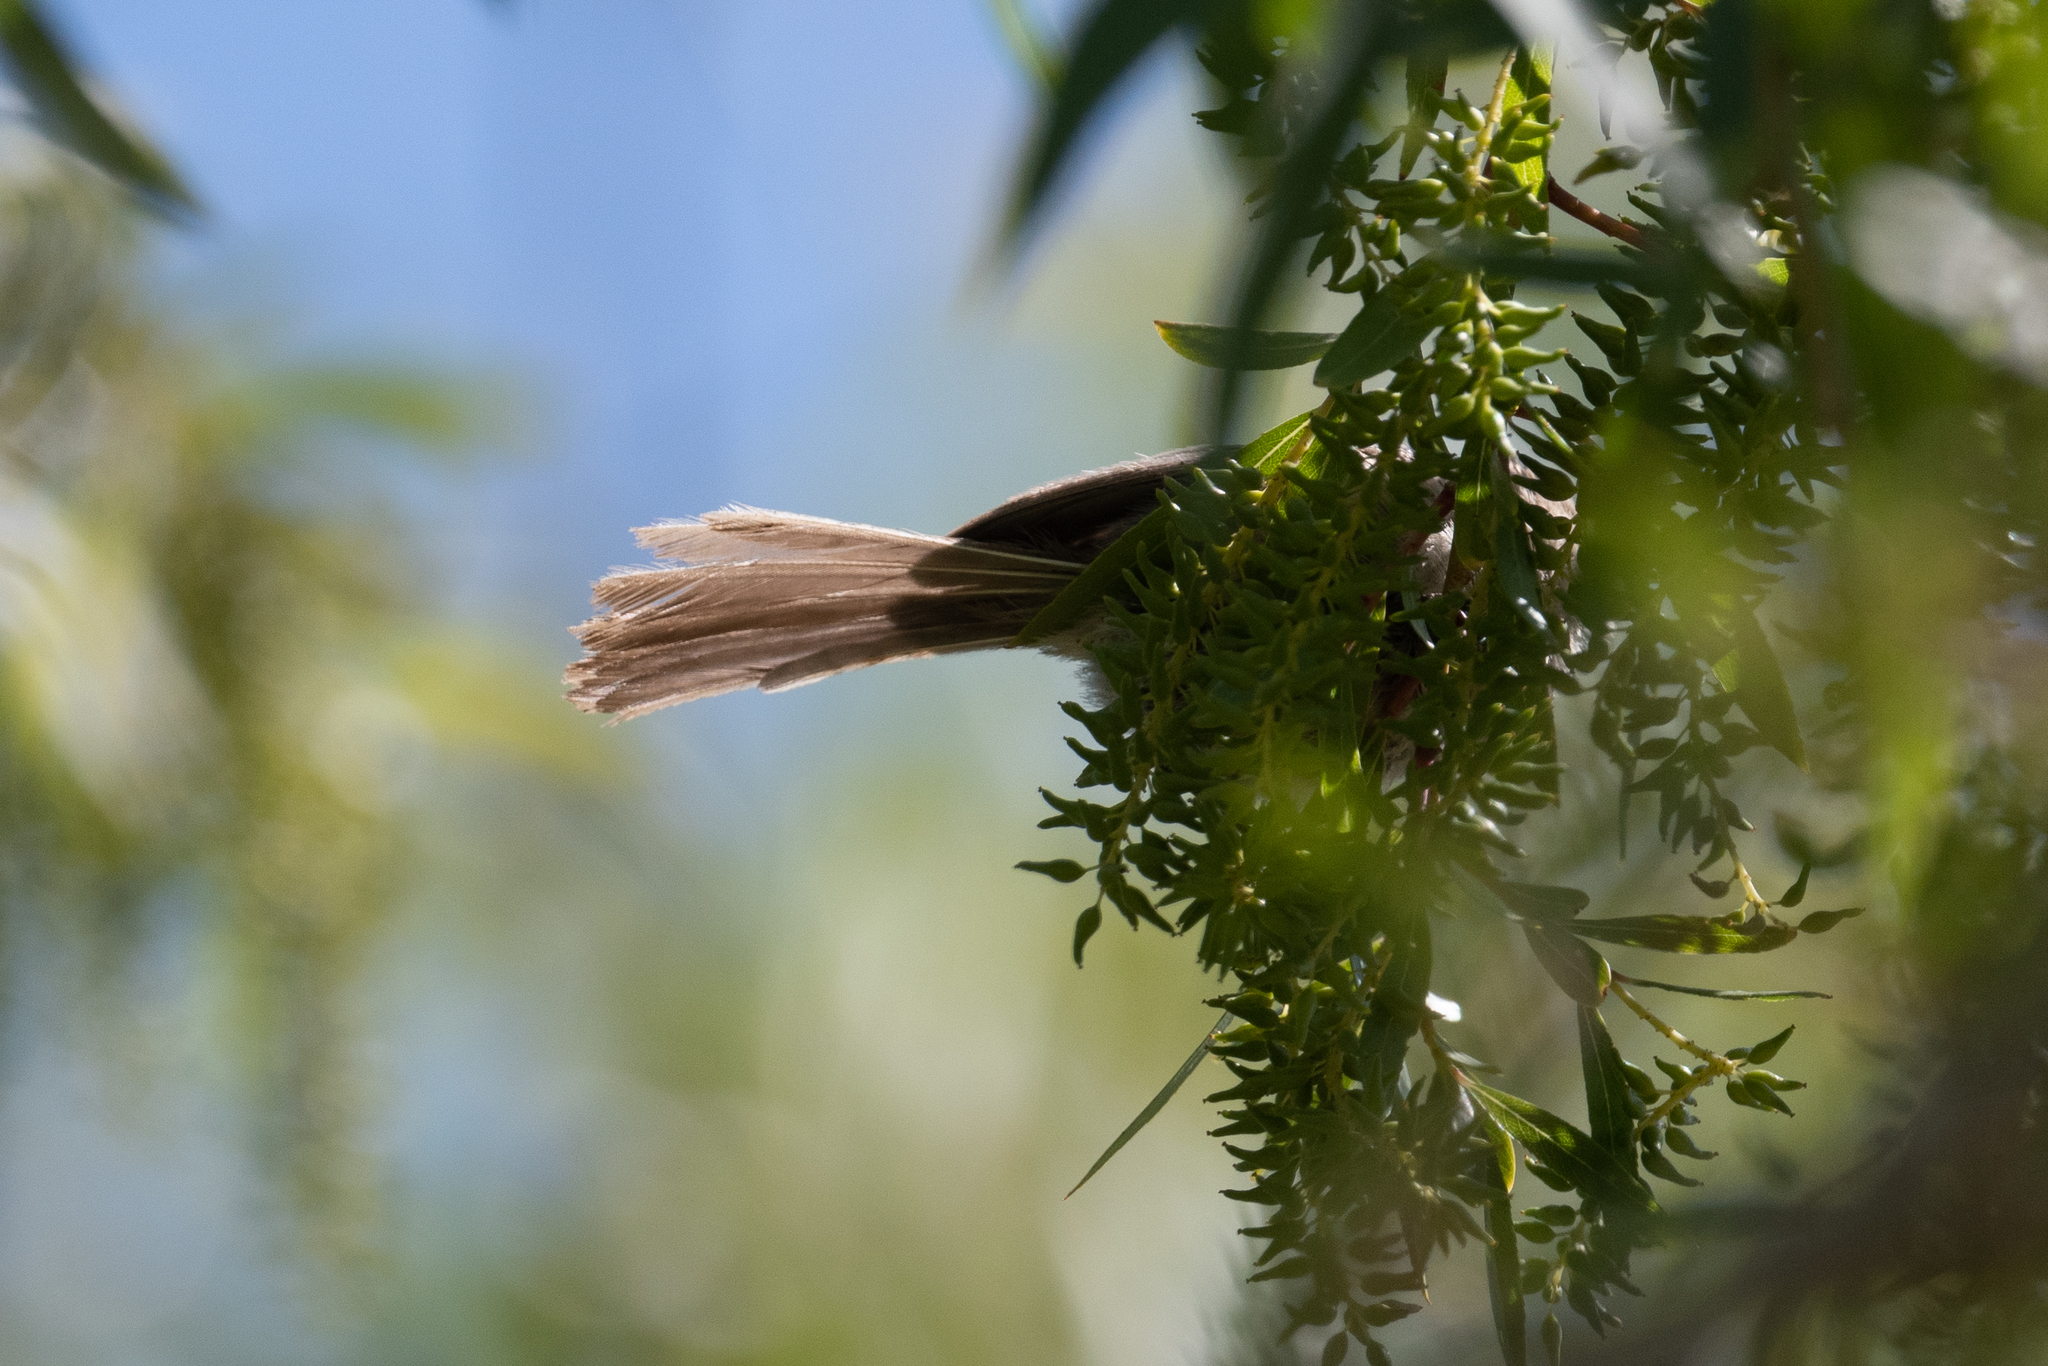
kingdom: Animalia
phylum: Chordata
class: Aves
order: Passeriformes
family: Aegithalidae
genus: Psaltriparus
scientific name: Psaltriparus minimus
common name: American bushtit
